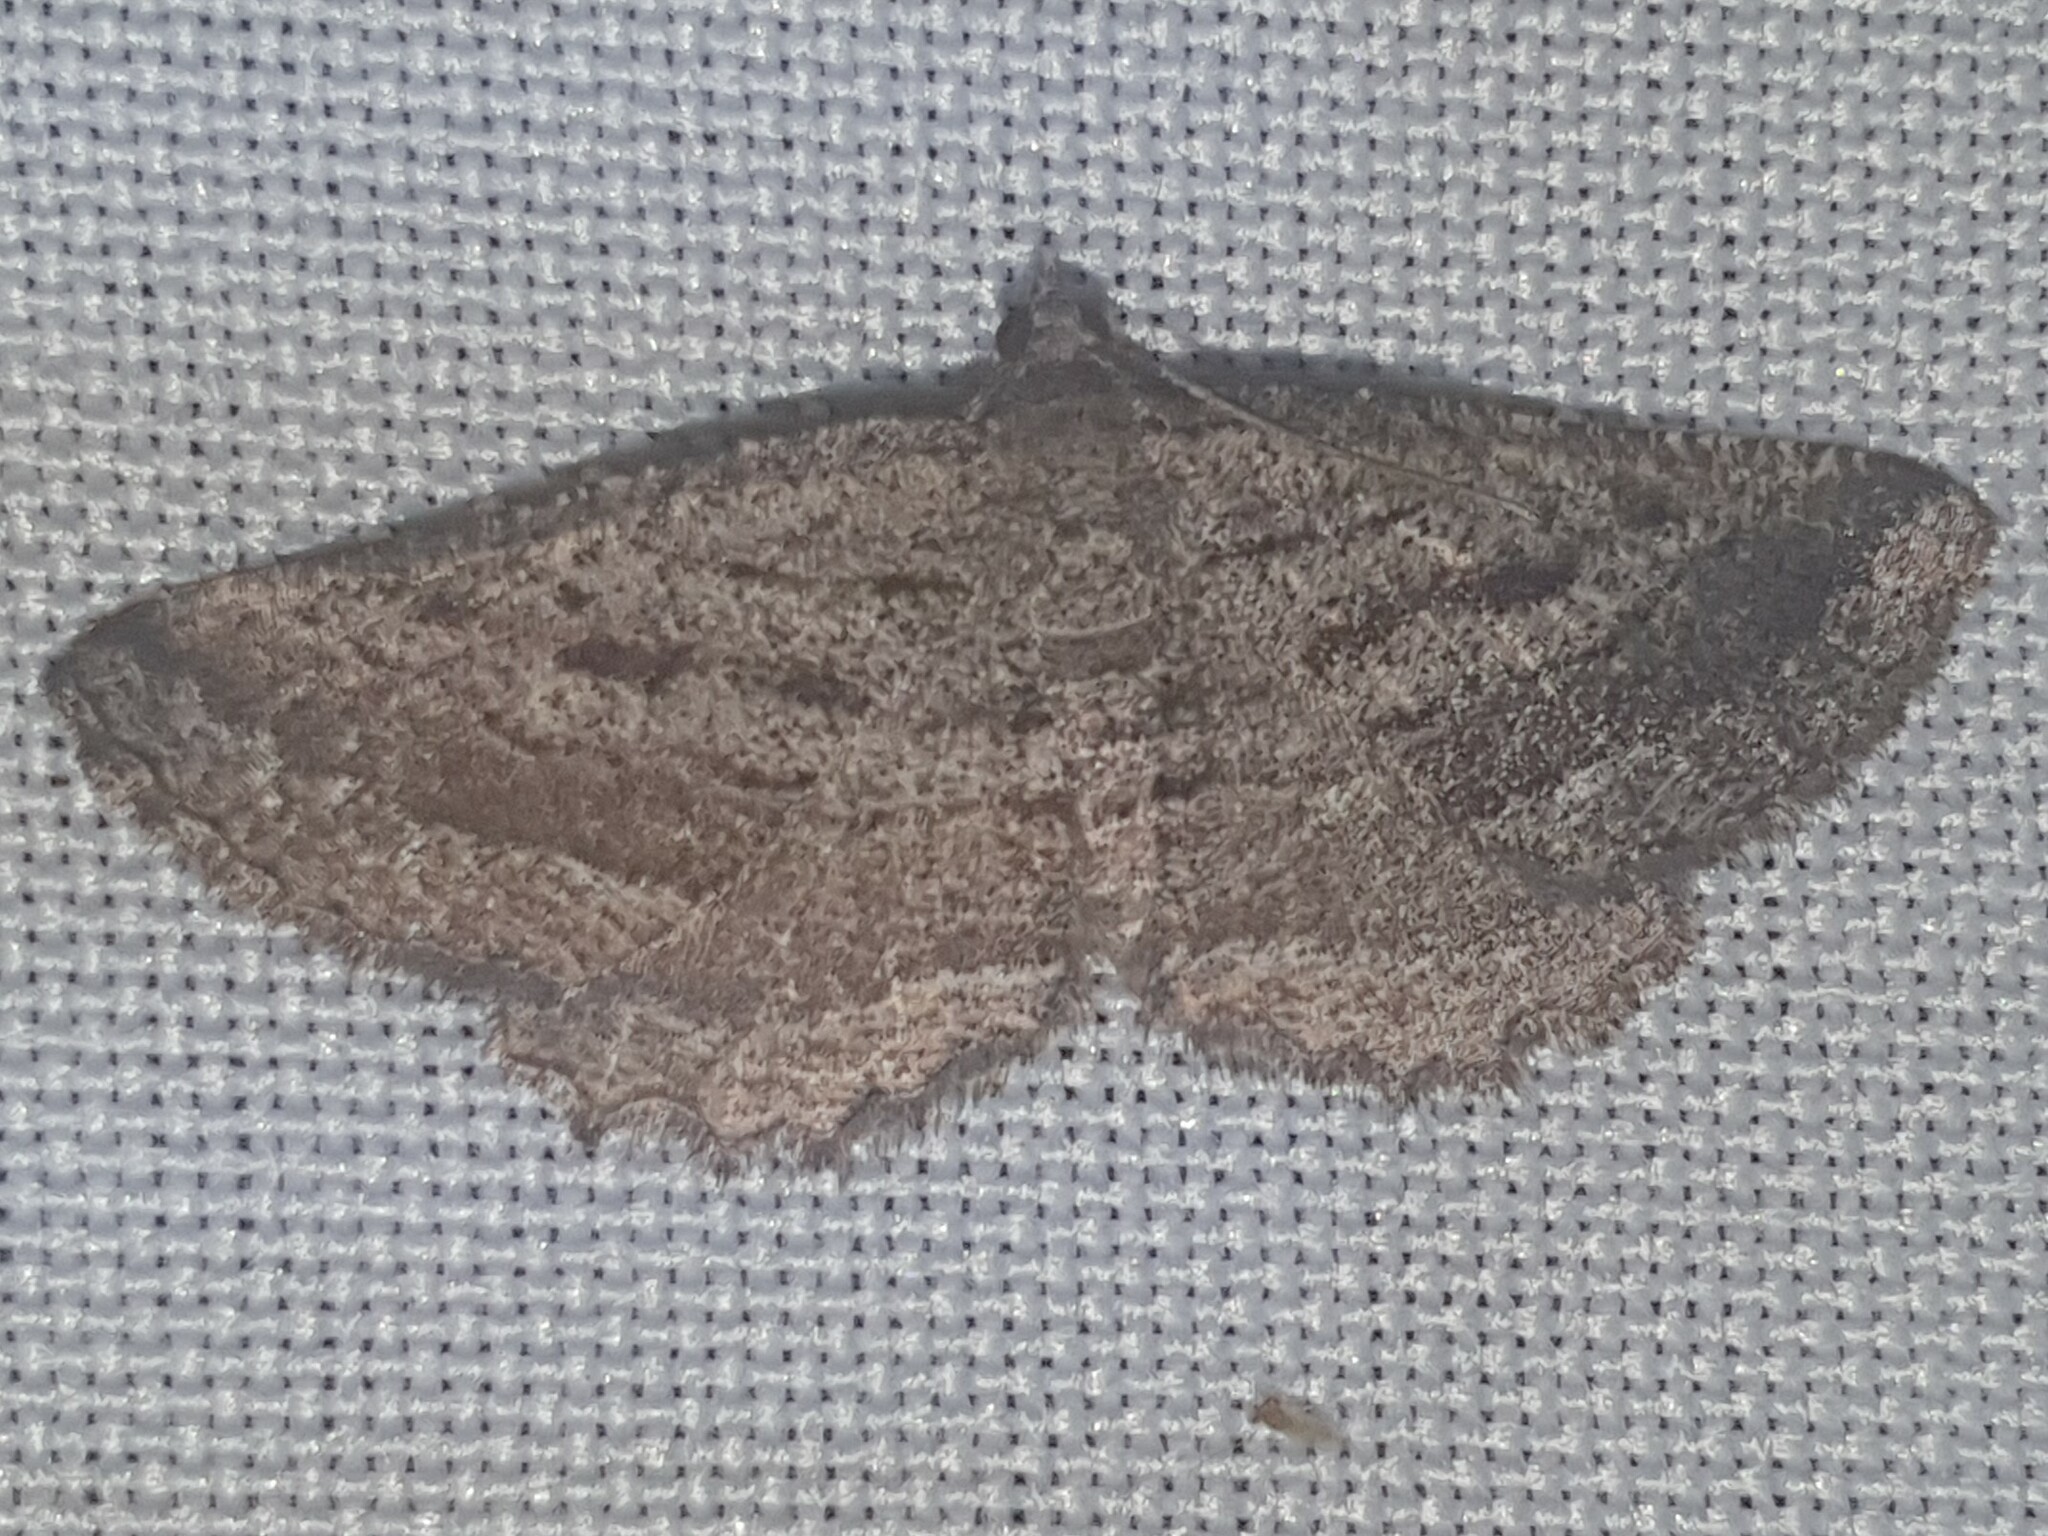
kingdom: Animalia
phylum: Arthropoda
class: Insecta
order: Lepidoptera
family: Geometridae
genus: Rhoptria
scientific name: Rhoptria asperaria
